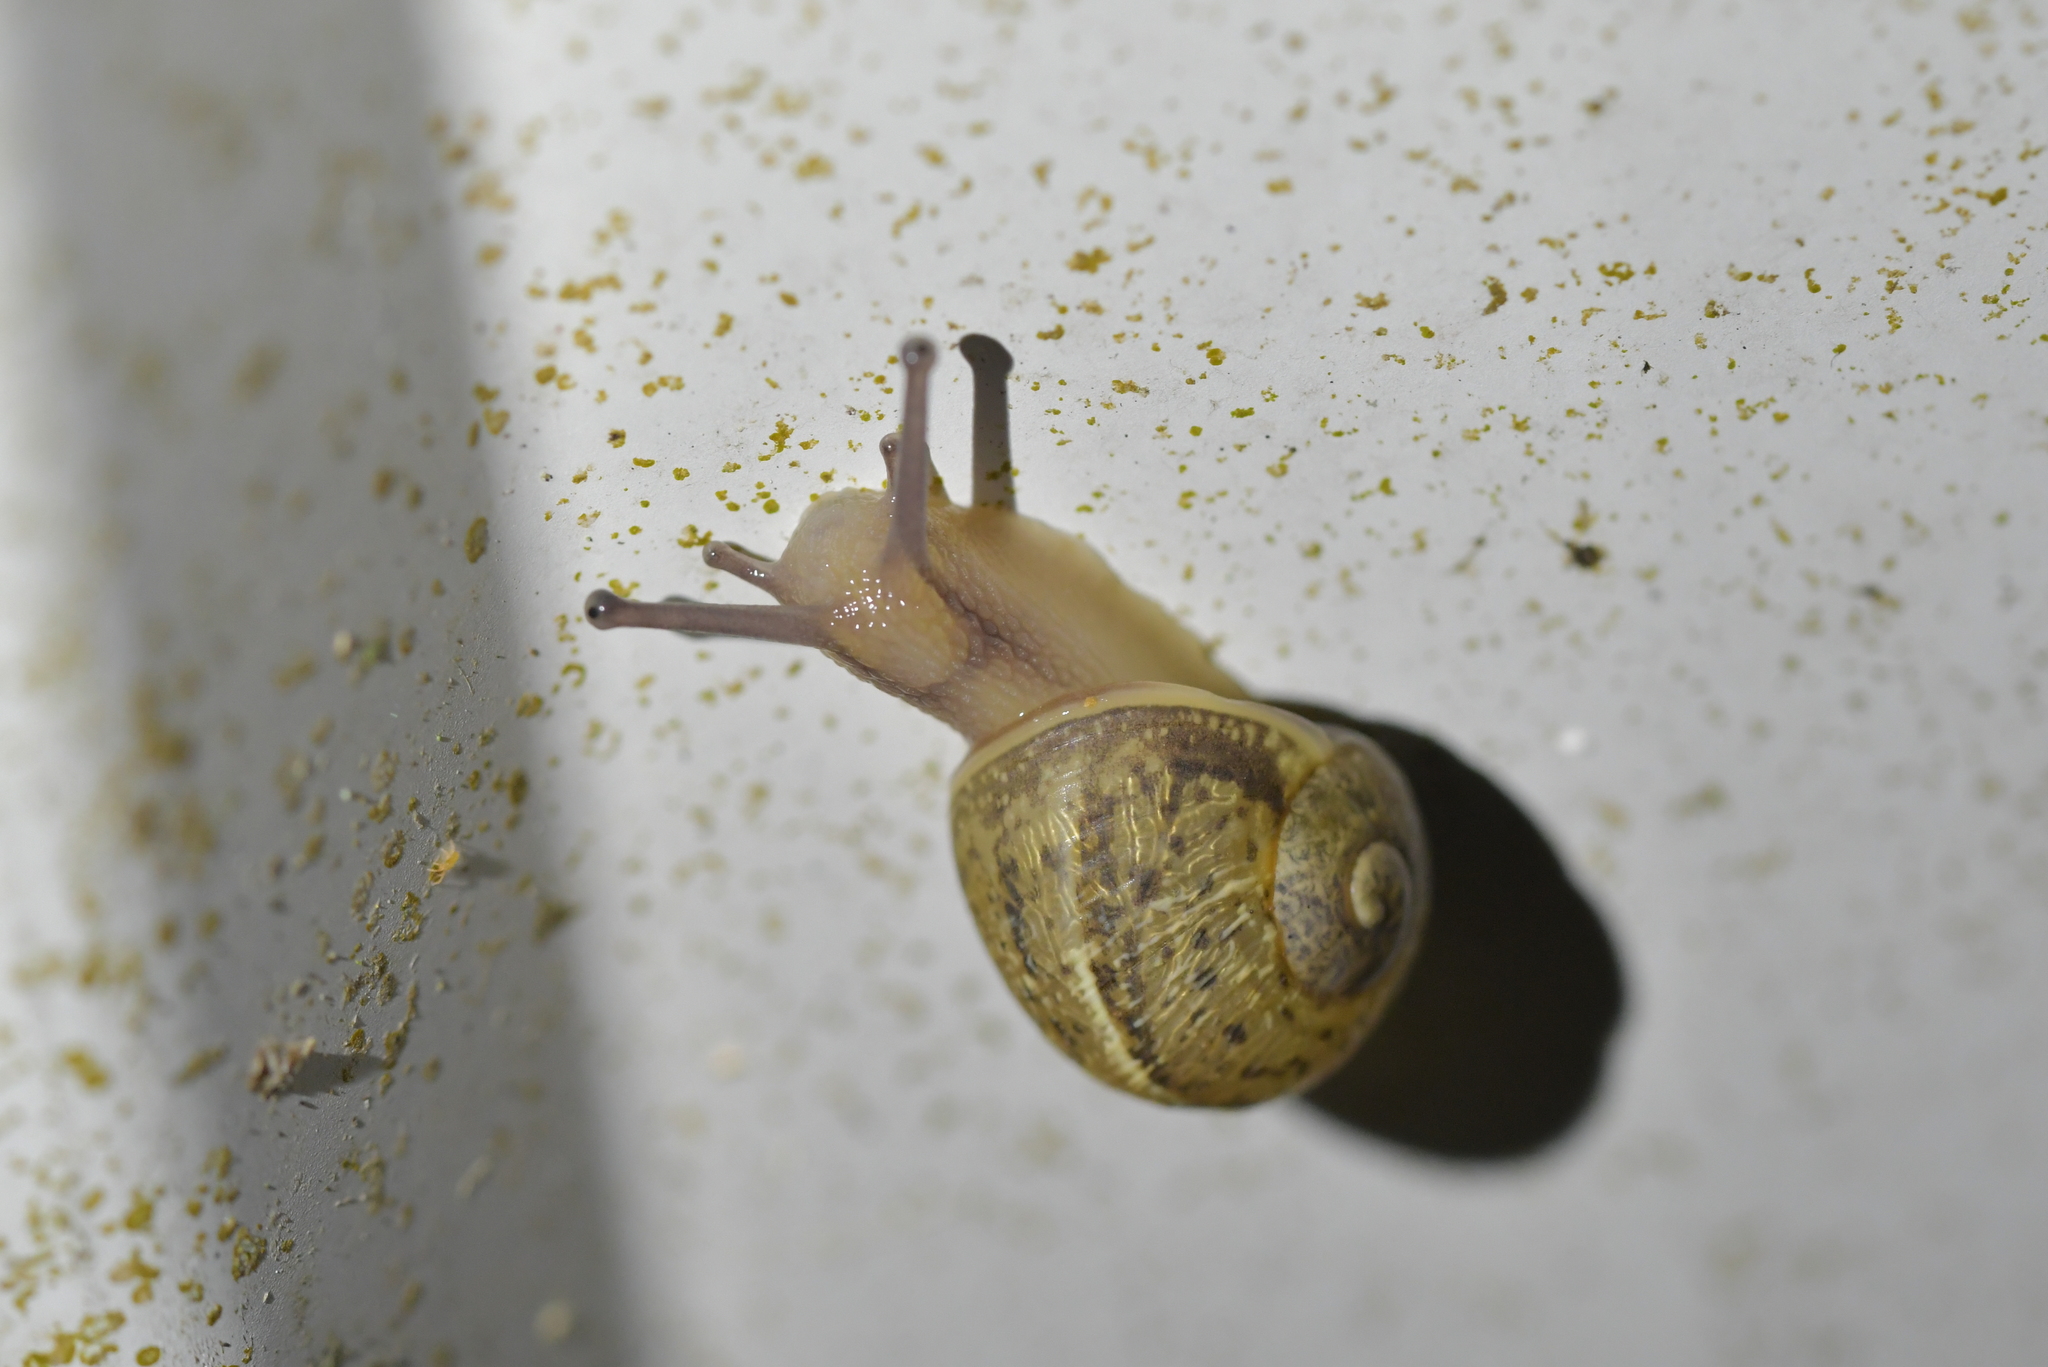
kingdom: Animalia
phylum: Mollusca
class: Gastropoda
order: Stylommatophora
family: Helicidae
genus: Cornu
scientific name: Cornu aspersum
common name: Brown garden snail
